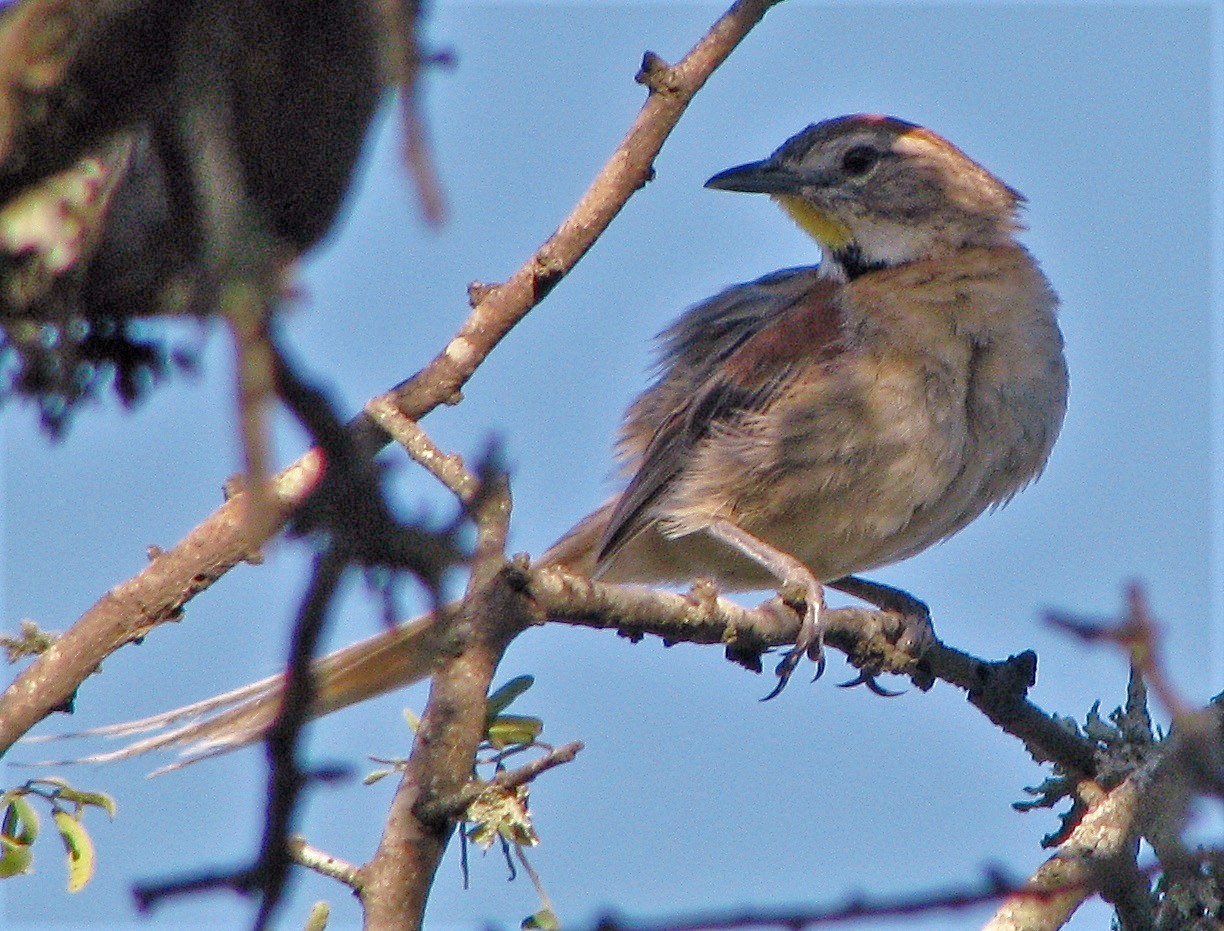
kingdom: Animalia
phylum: Chordata
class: Aves
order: Passeriformes
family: Furnariidae
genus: Schoeniophylax
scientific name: Schoeniophylax phryganophilus
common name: Chotoy spinetail
